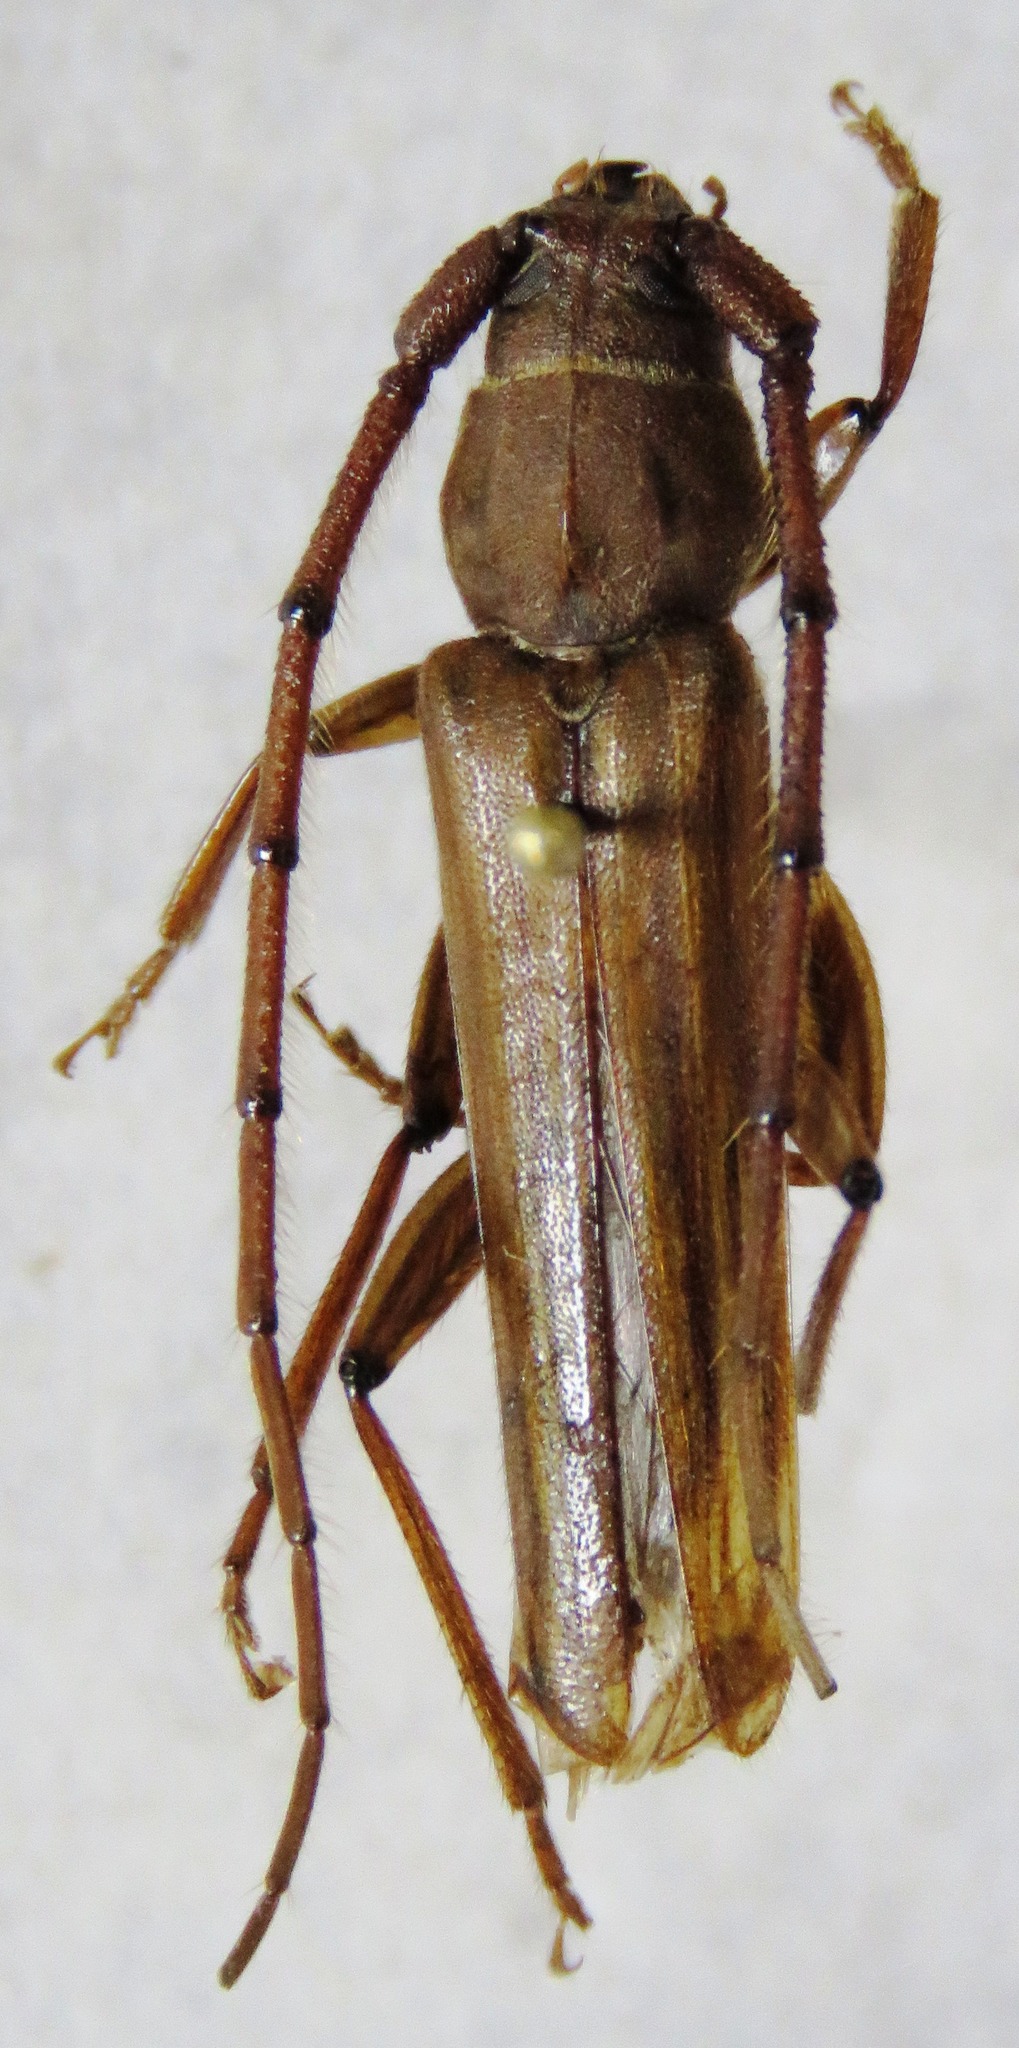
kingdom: Animalia
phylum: Arthropoda
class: Insecta
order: Coleoptera
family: Cerambycidae
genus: Malacopterus
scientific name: Malacopterus tenellus
